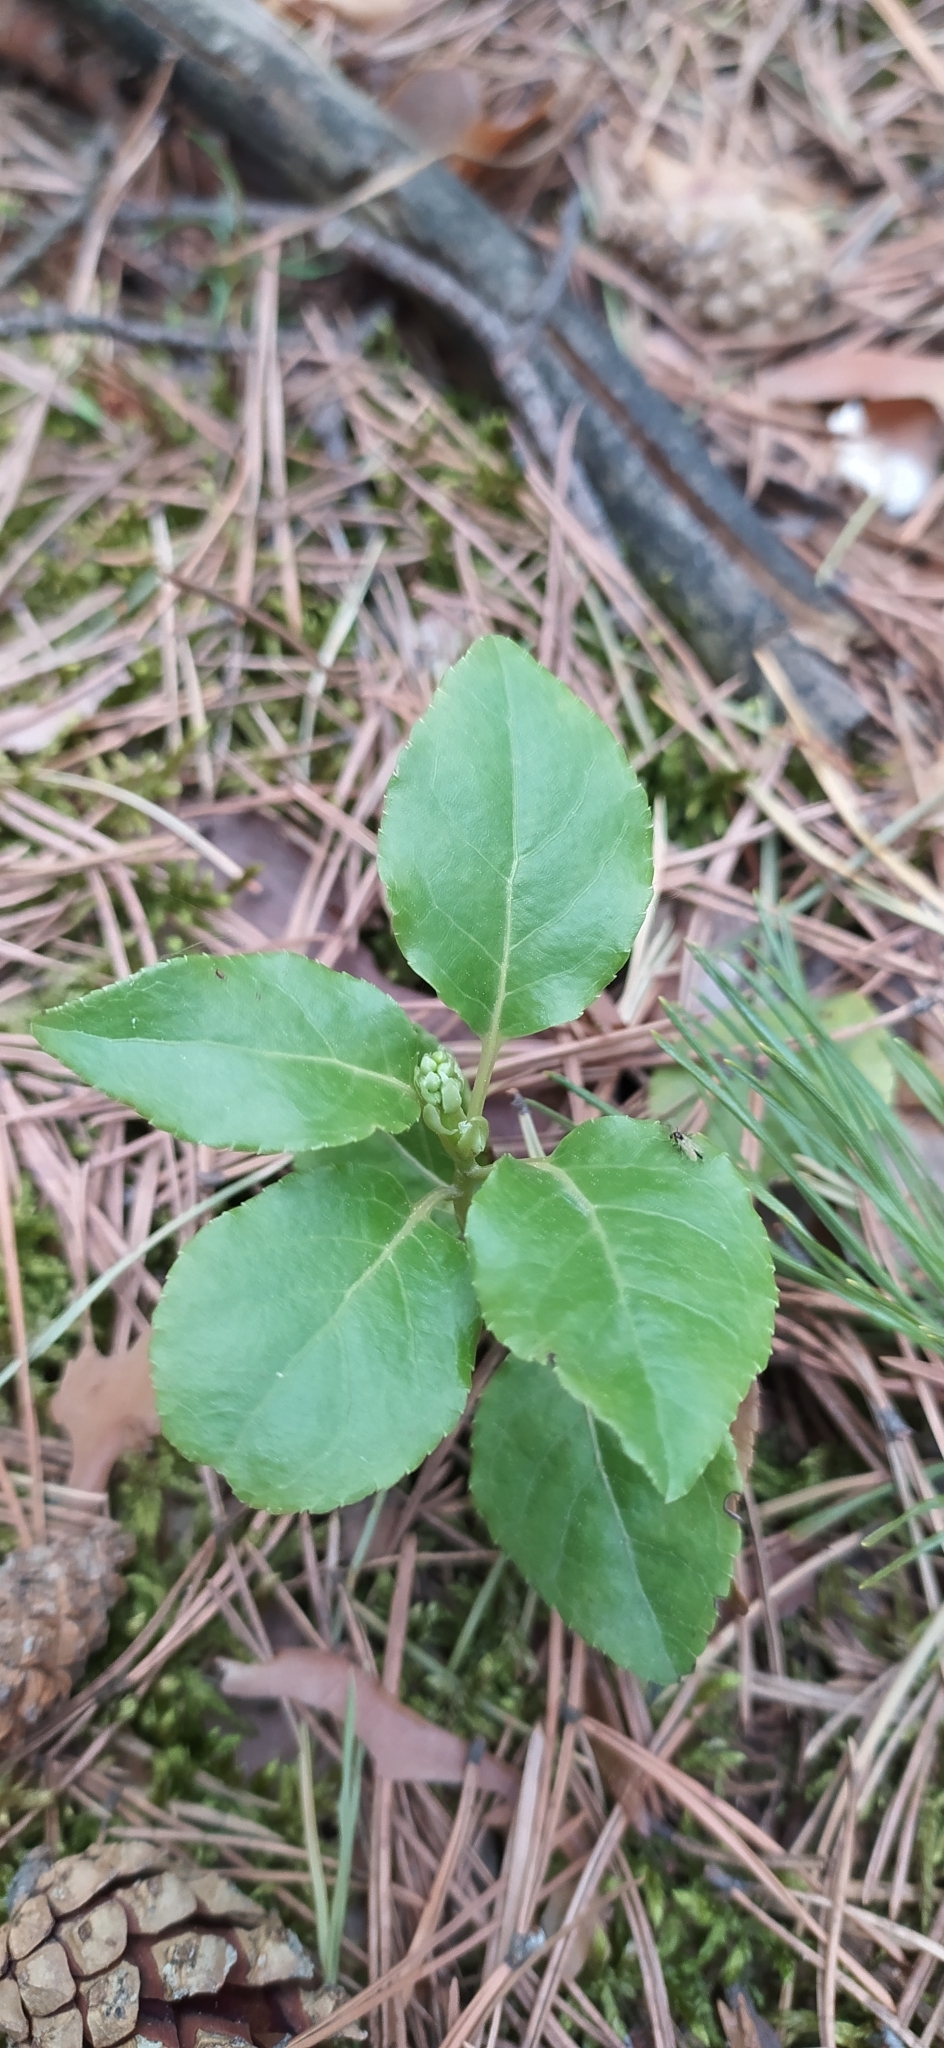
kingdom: Plantae
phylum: Tracheophyta
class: Magnoliopsida
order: Ericales
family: Ericaceae
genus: Orthilia
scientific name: Orthilia secunda
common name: One-sided orthilia
